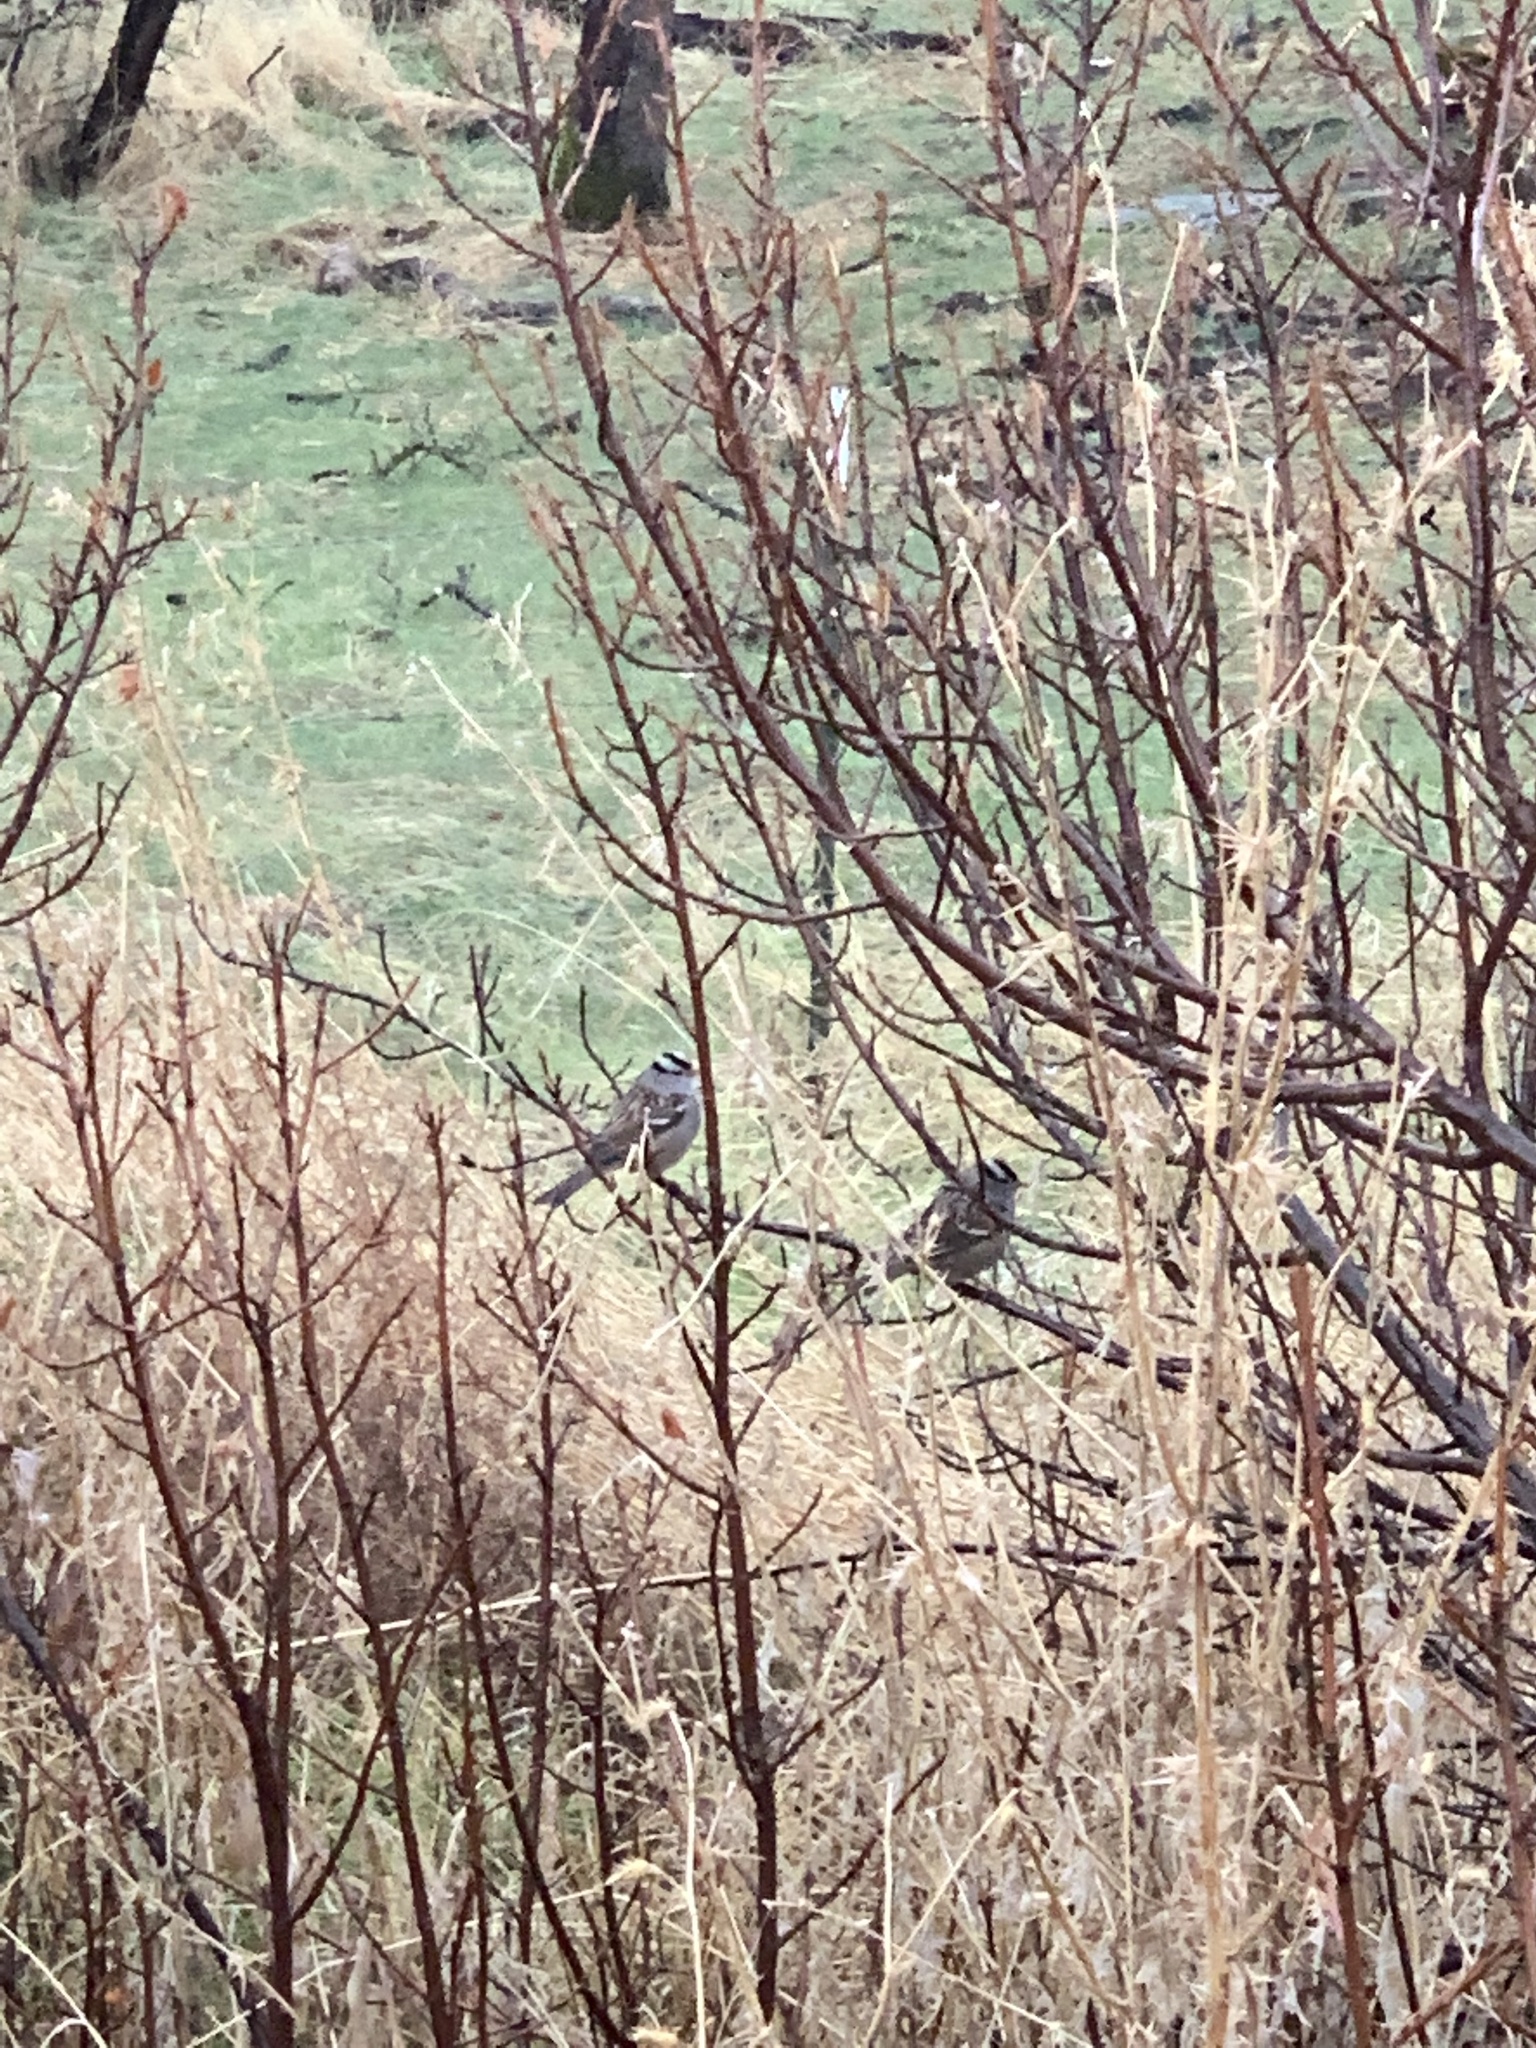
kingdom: Animalia
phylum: Chordata
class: Aves
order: Passeriformes
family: Passerellidae
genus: Zonotrichia
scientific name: Zonotrichia leucophrys
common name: White-crowned sparrow
